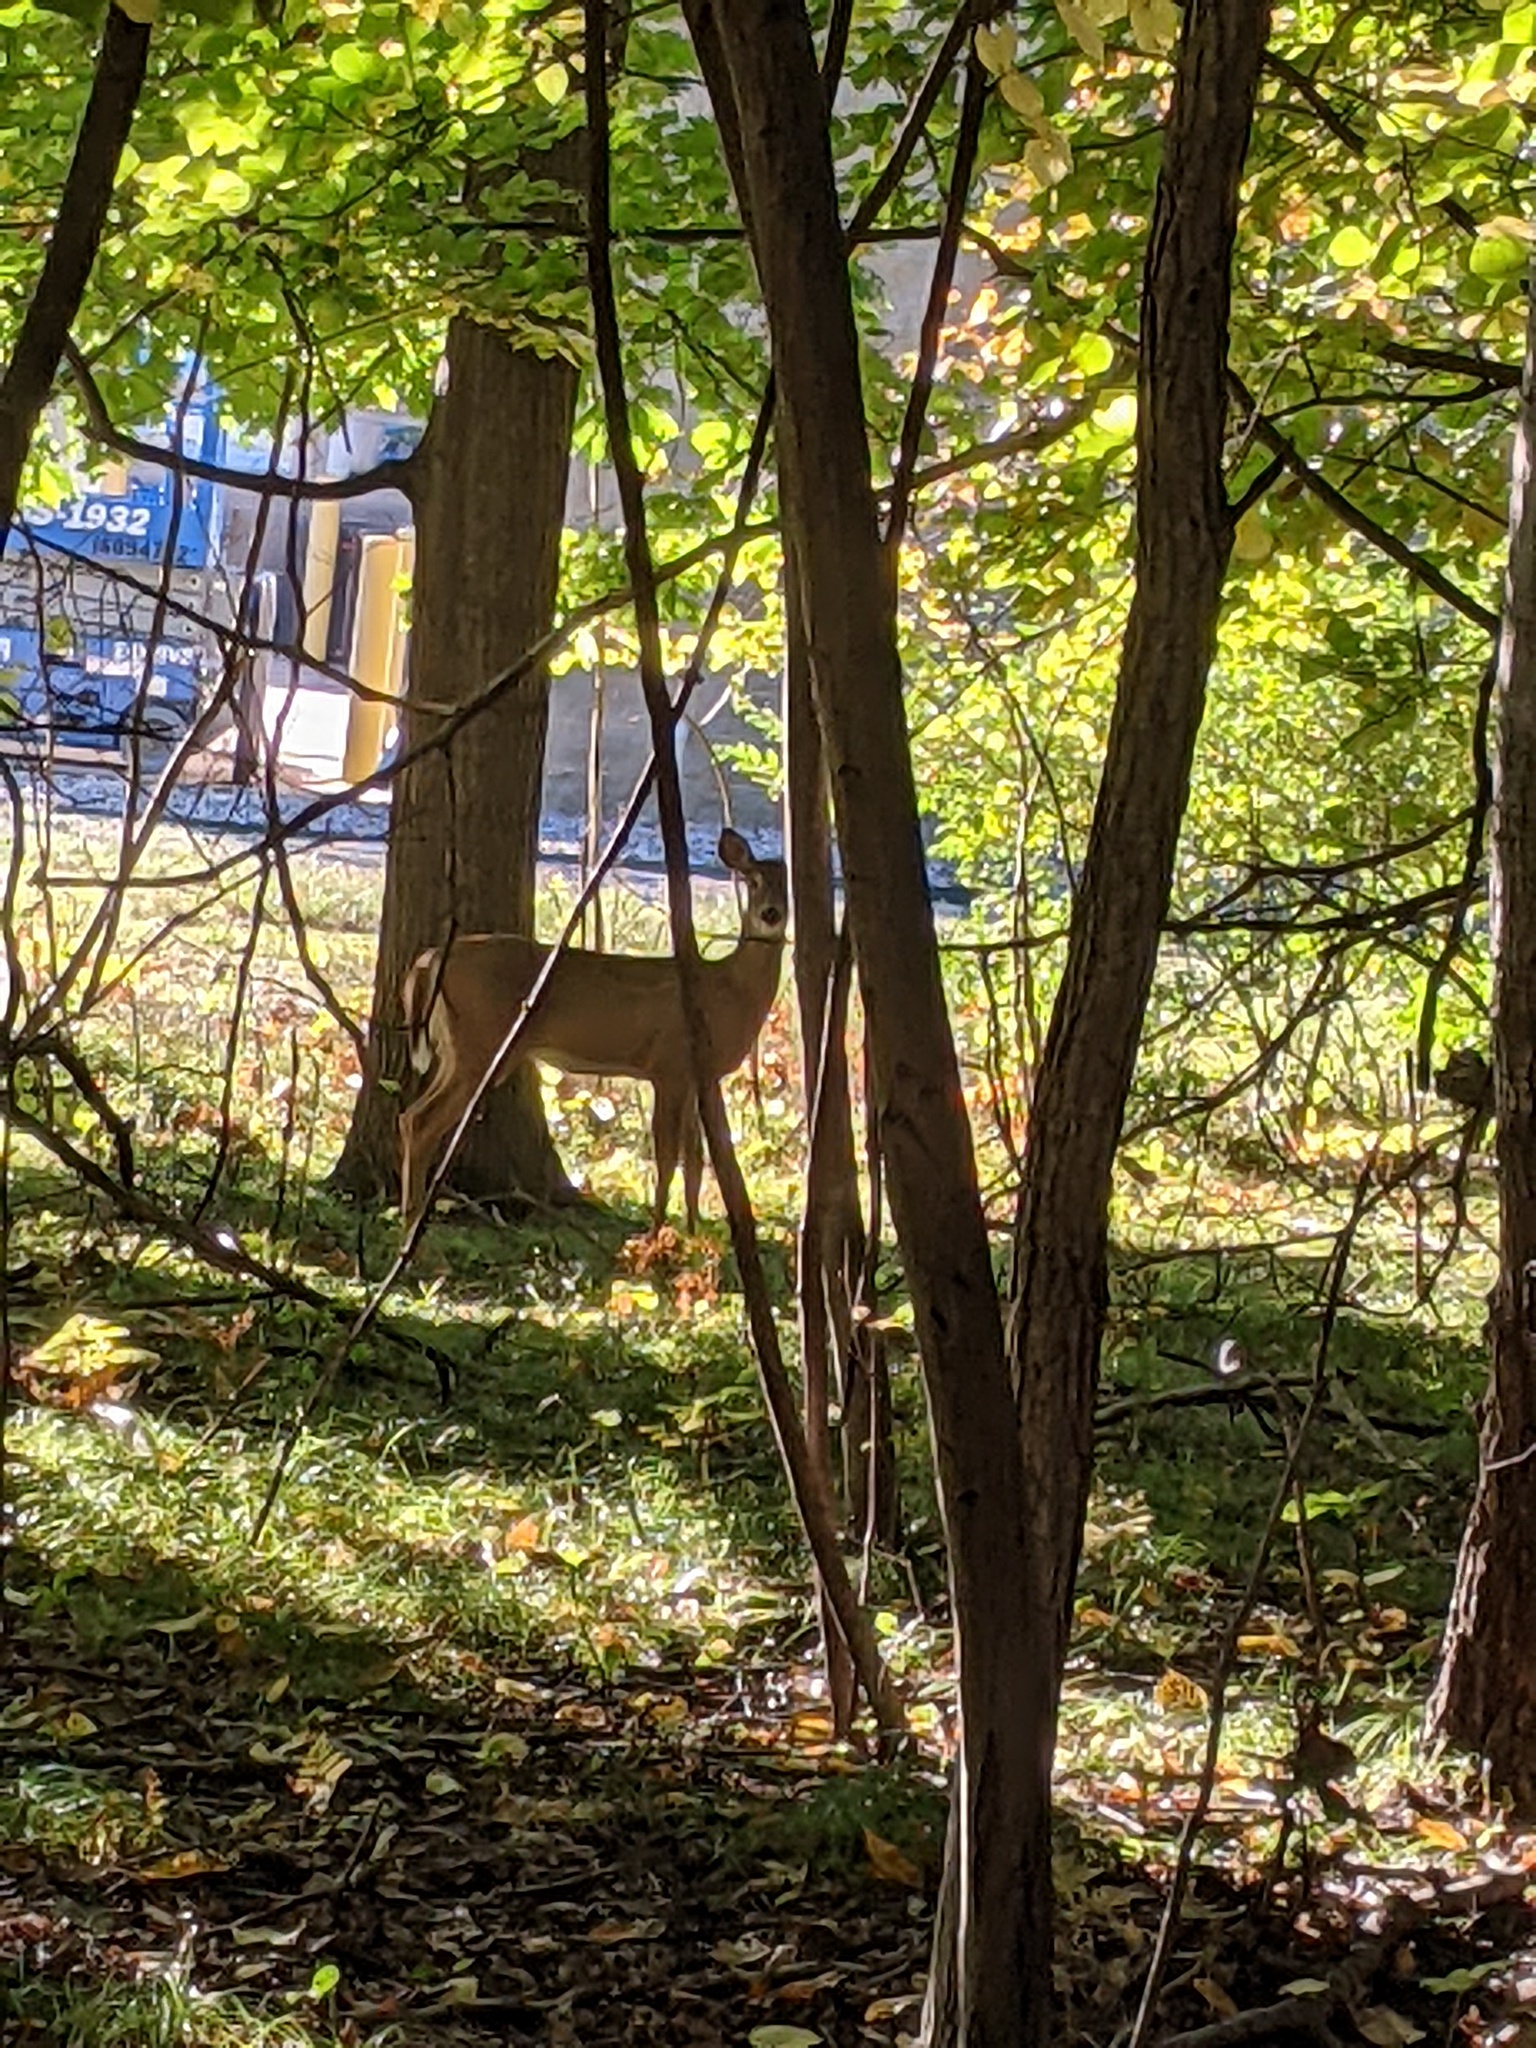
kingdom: Animalia
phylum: Chordata
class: Mammalia
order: Artiodactyla
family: Cervidae
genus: Odocoileus
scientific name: Odocoileus virginianus
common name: White-tailed deer
